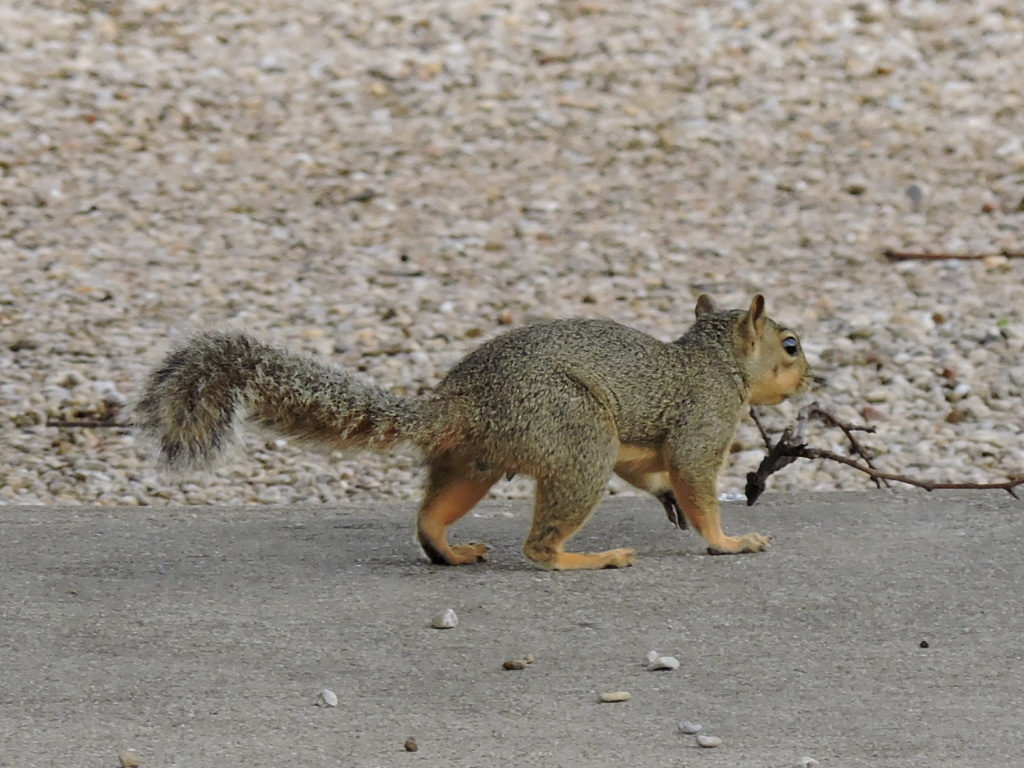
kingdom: Animalia
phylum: Chordata
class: Mammalia
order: Rodentia
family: Sciuridae
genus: Sciurus
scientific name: Sciurus niger
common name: Fox squirrel
